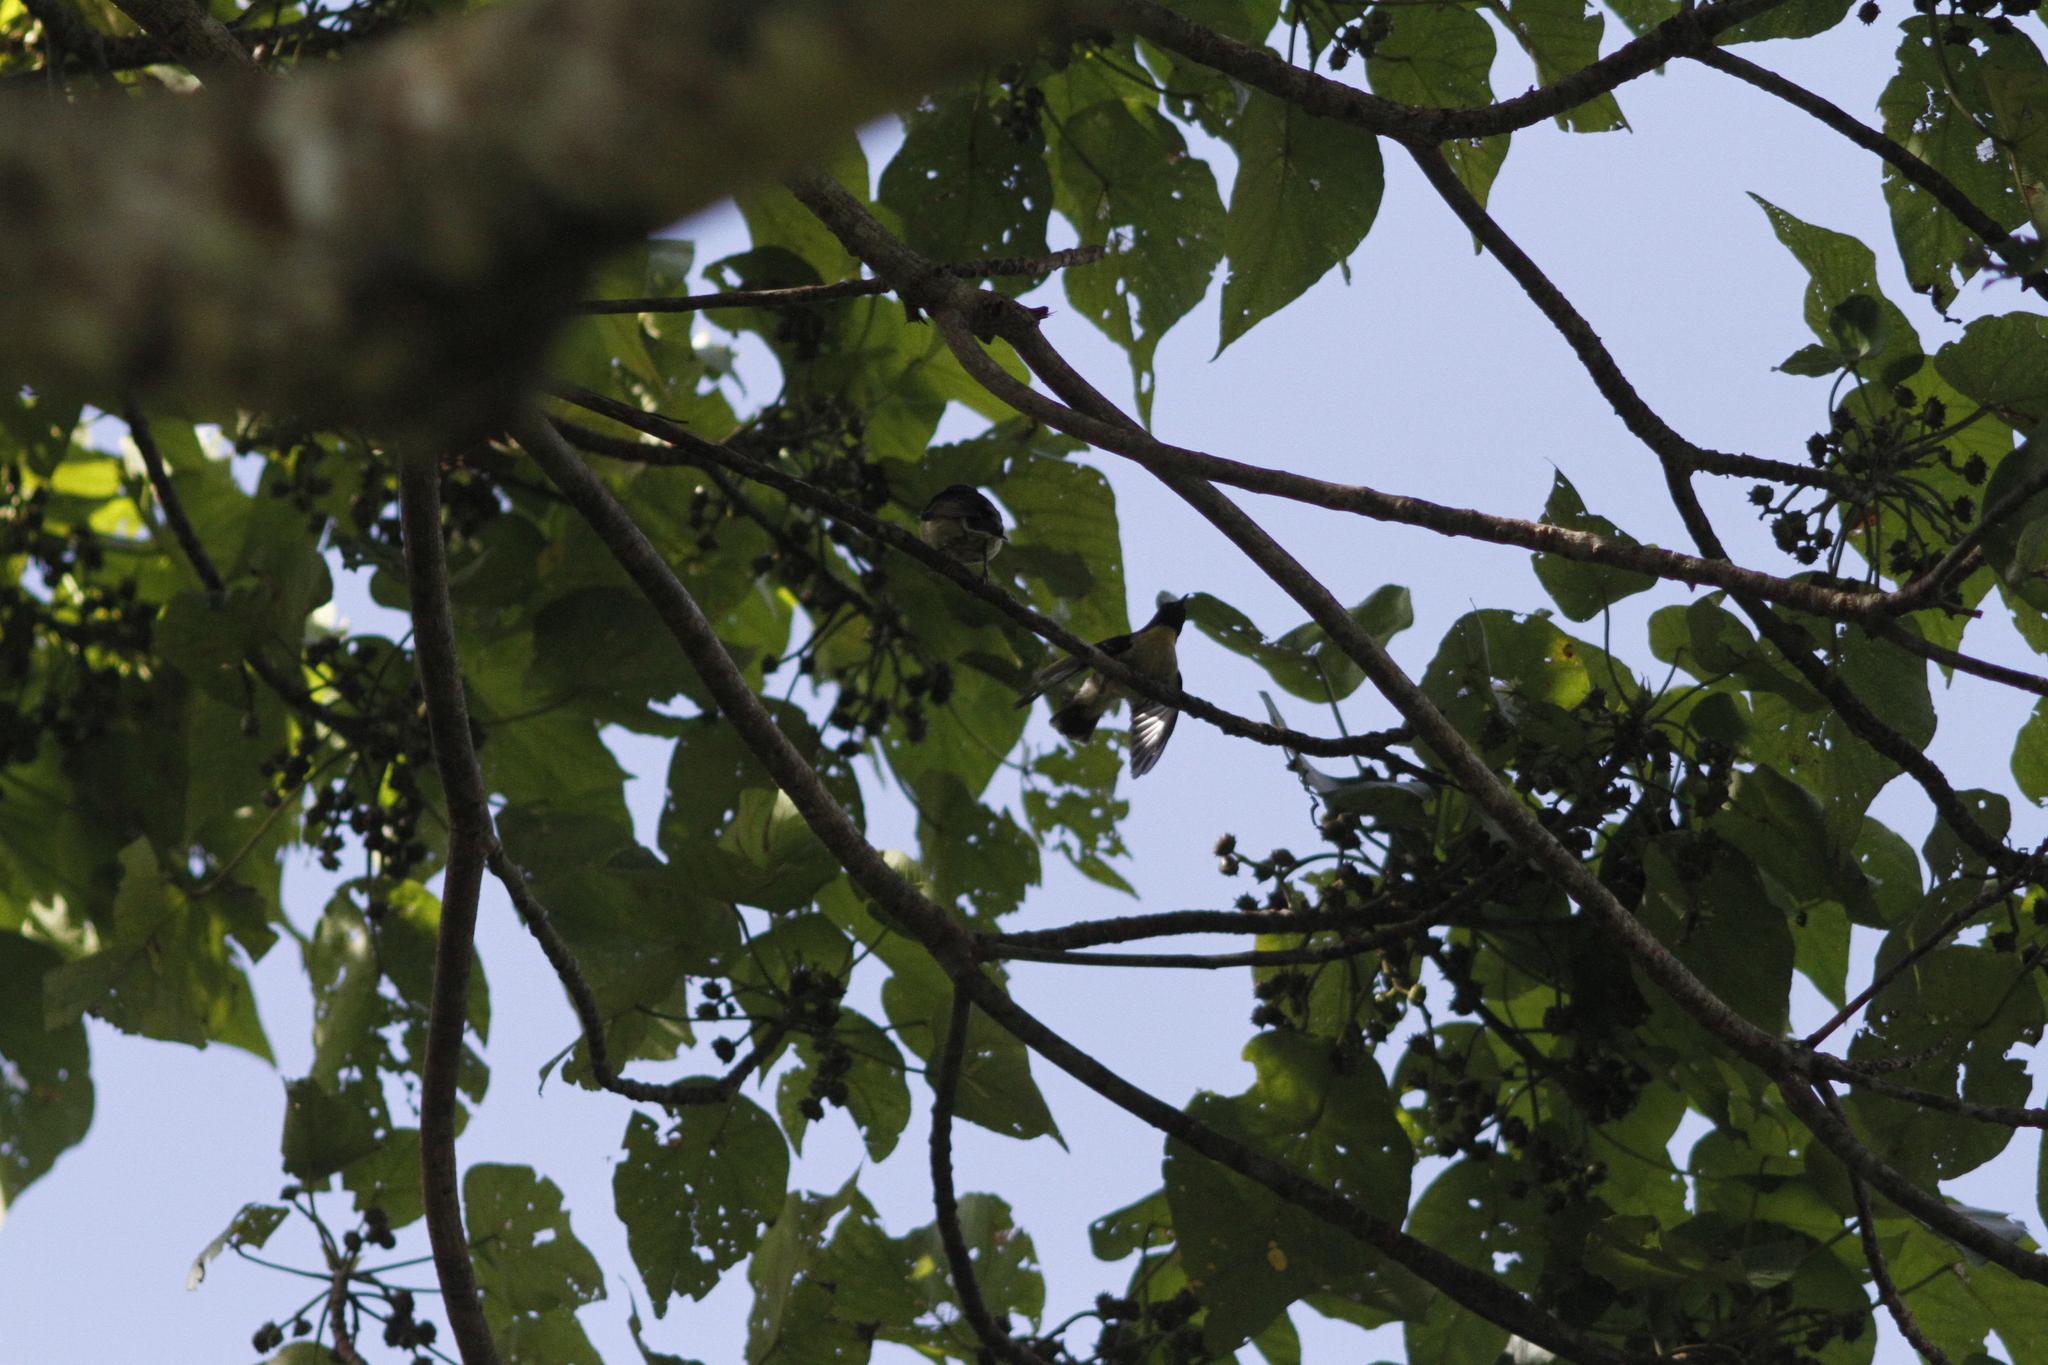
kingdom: Animalia
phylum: Chordata
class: Aves
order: Passeriformes
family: Meliphagidae
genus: Myzomela
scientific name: Myzomela jugularis
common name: Sulphur-breasted myzomela
